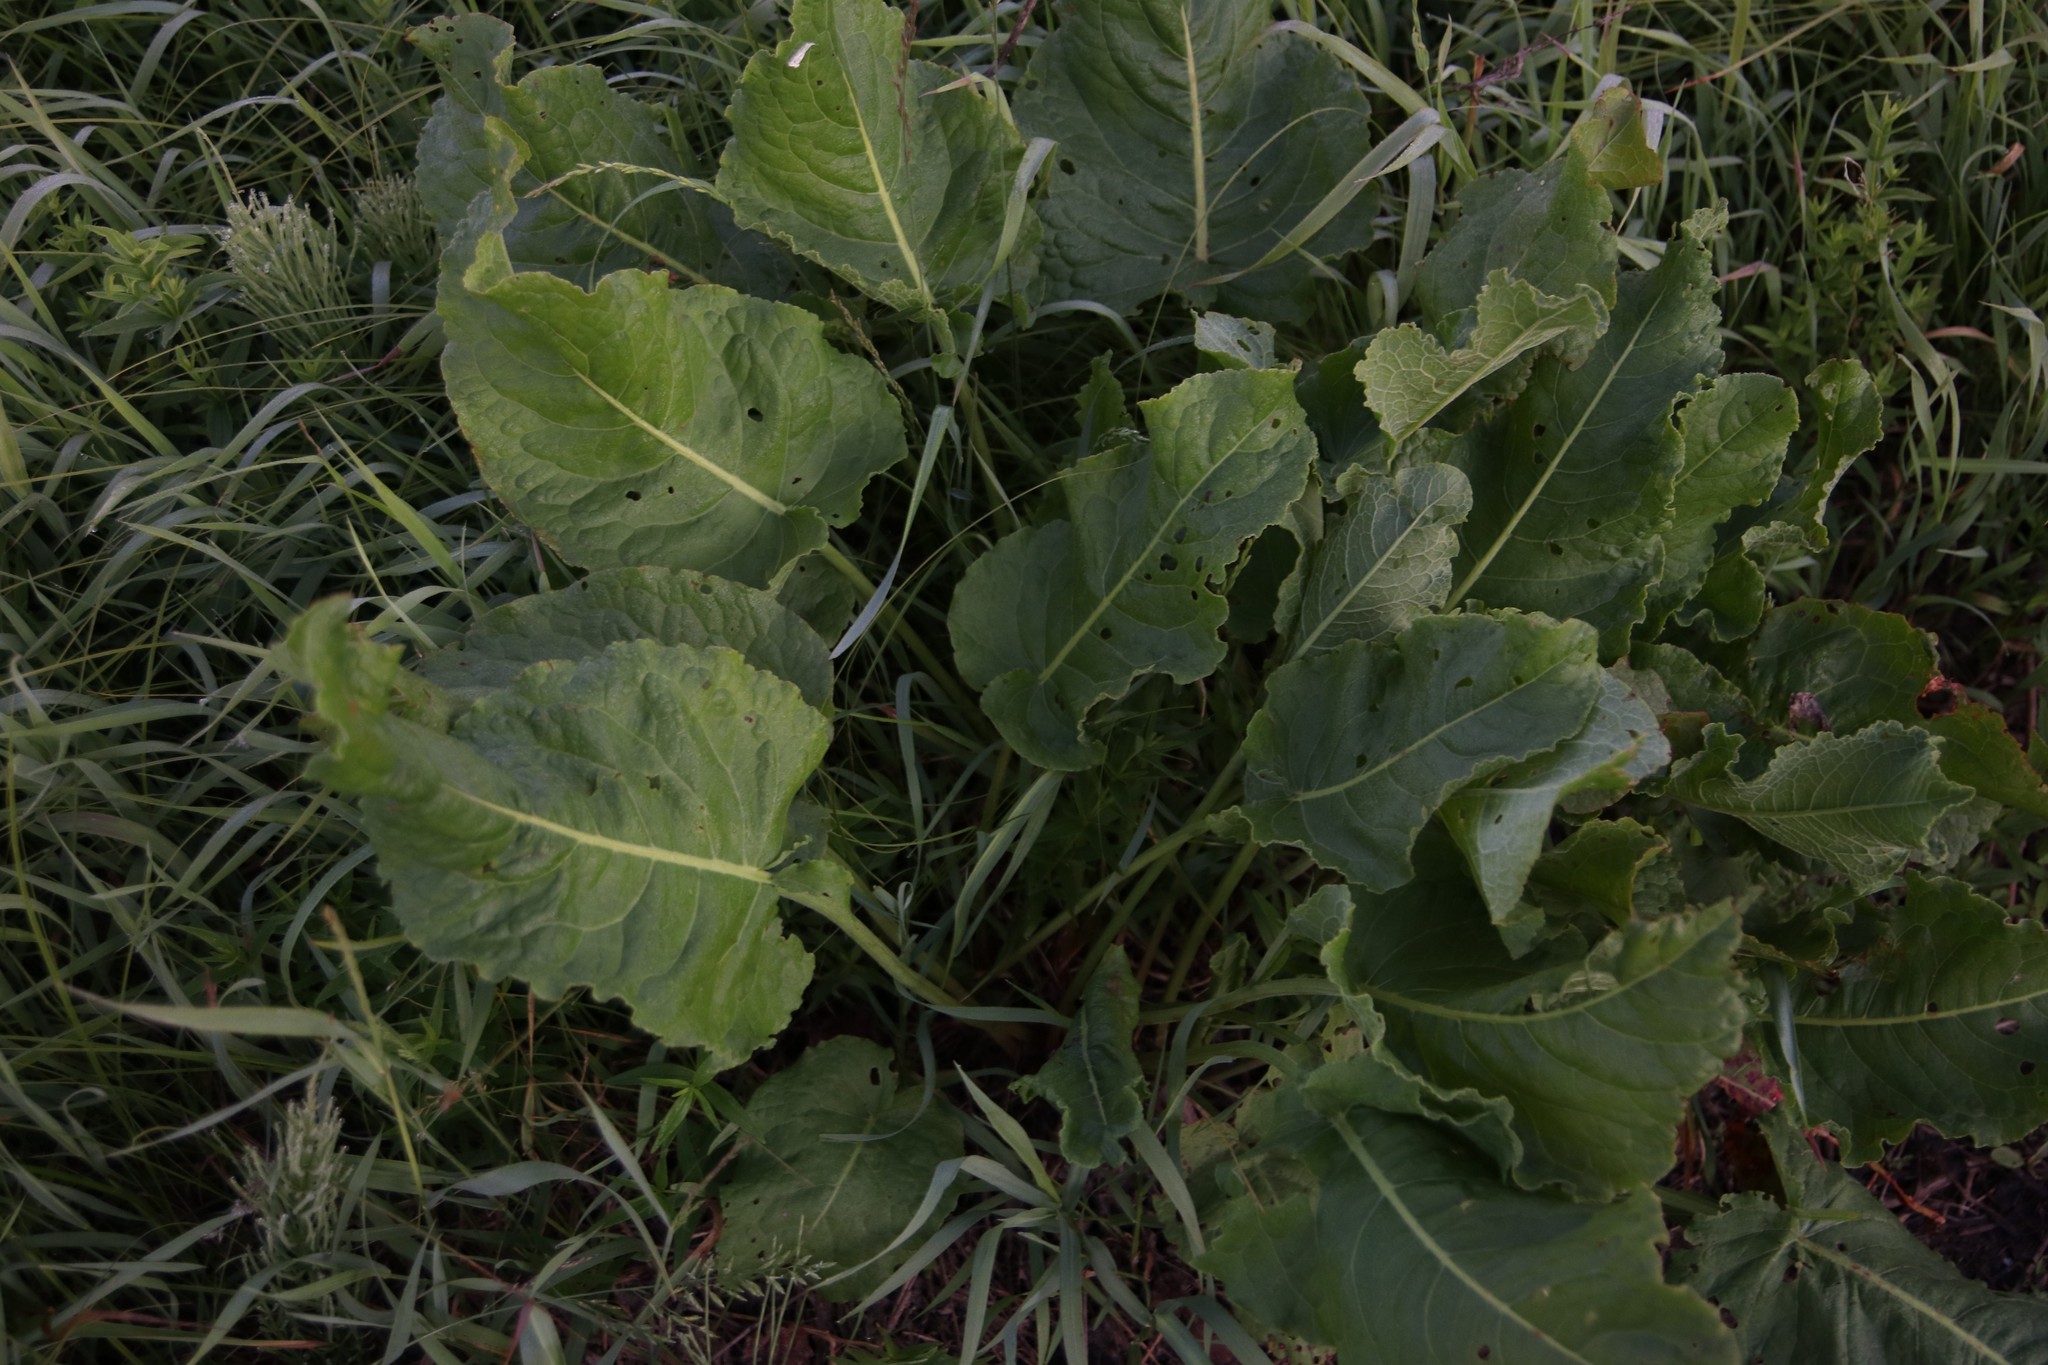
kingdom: Plantae
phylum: Tracheophyta
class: Magnoliopsida
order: Caryophyllales
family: Polygonaceae
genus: Rumex
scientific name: Rumex confertus
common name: Russian dock
